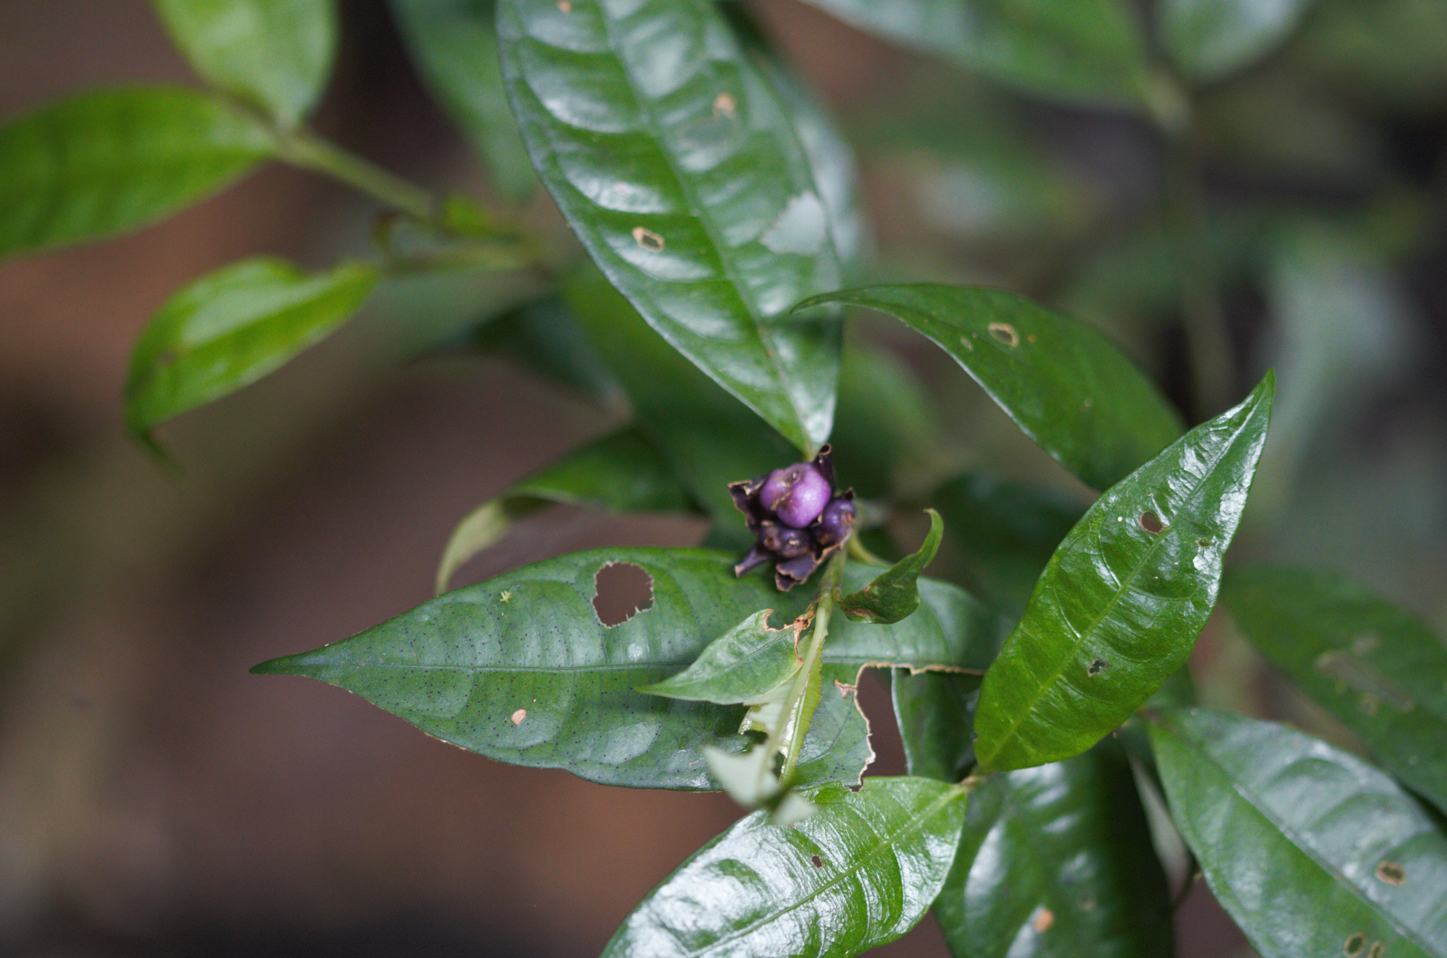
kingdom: Plantae
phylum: Tracheophyta
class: Magnoliopsida
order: Gentianales
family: Rubiaceae
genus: Palicourea
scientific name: Palicourea oblonga
